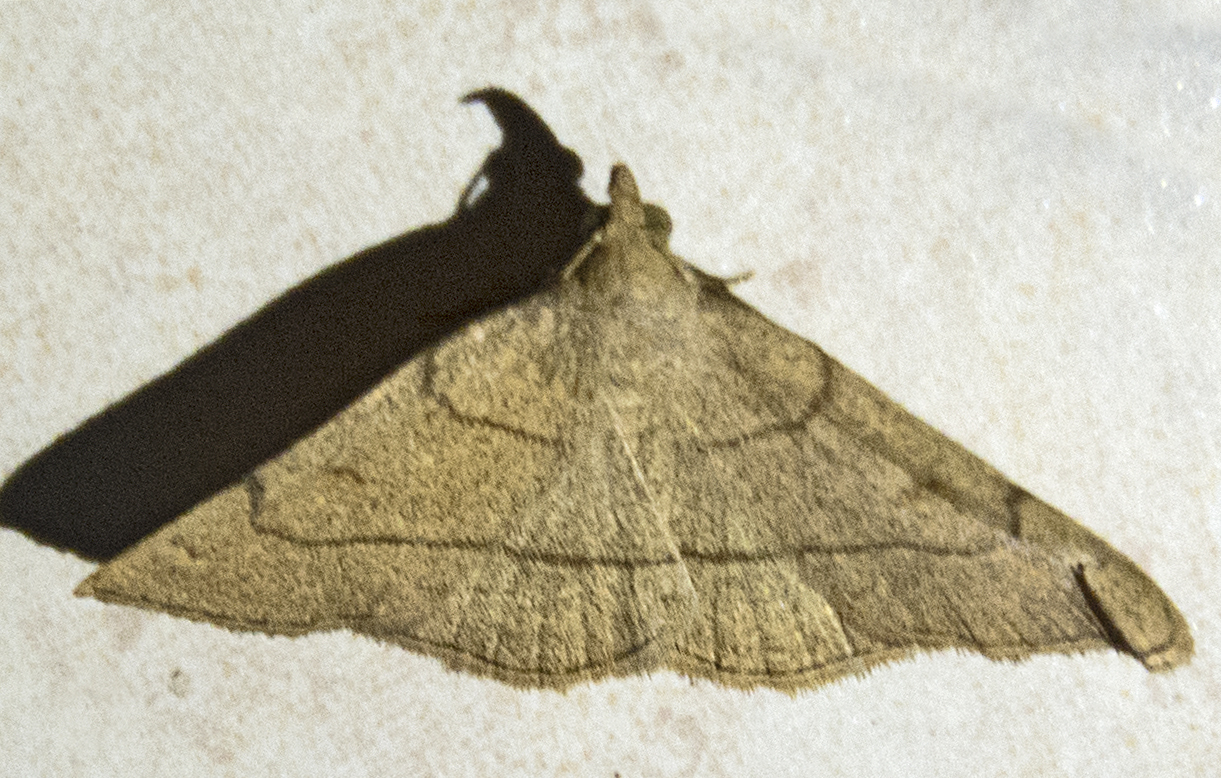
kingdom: Animalia
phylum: Arthropoda
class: Insecta
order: Lepidoptera
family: Erebidae
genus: Paracolax
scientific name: Paracolax tristalis
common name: Clay fan-foot
